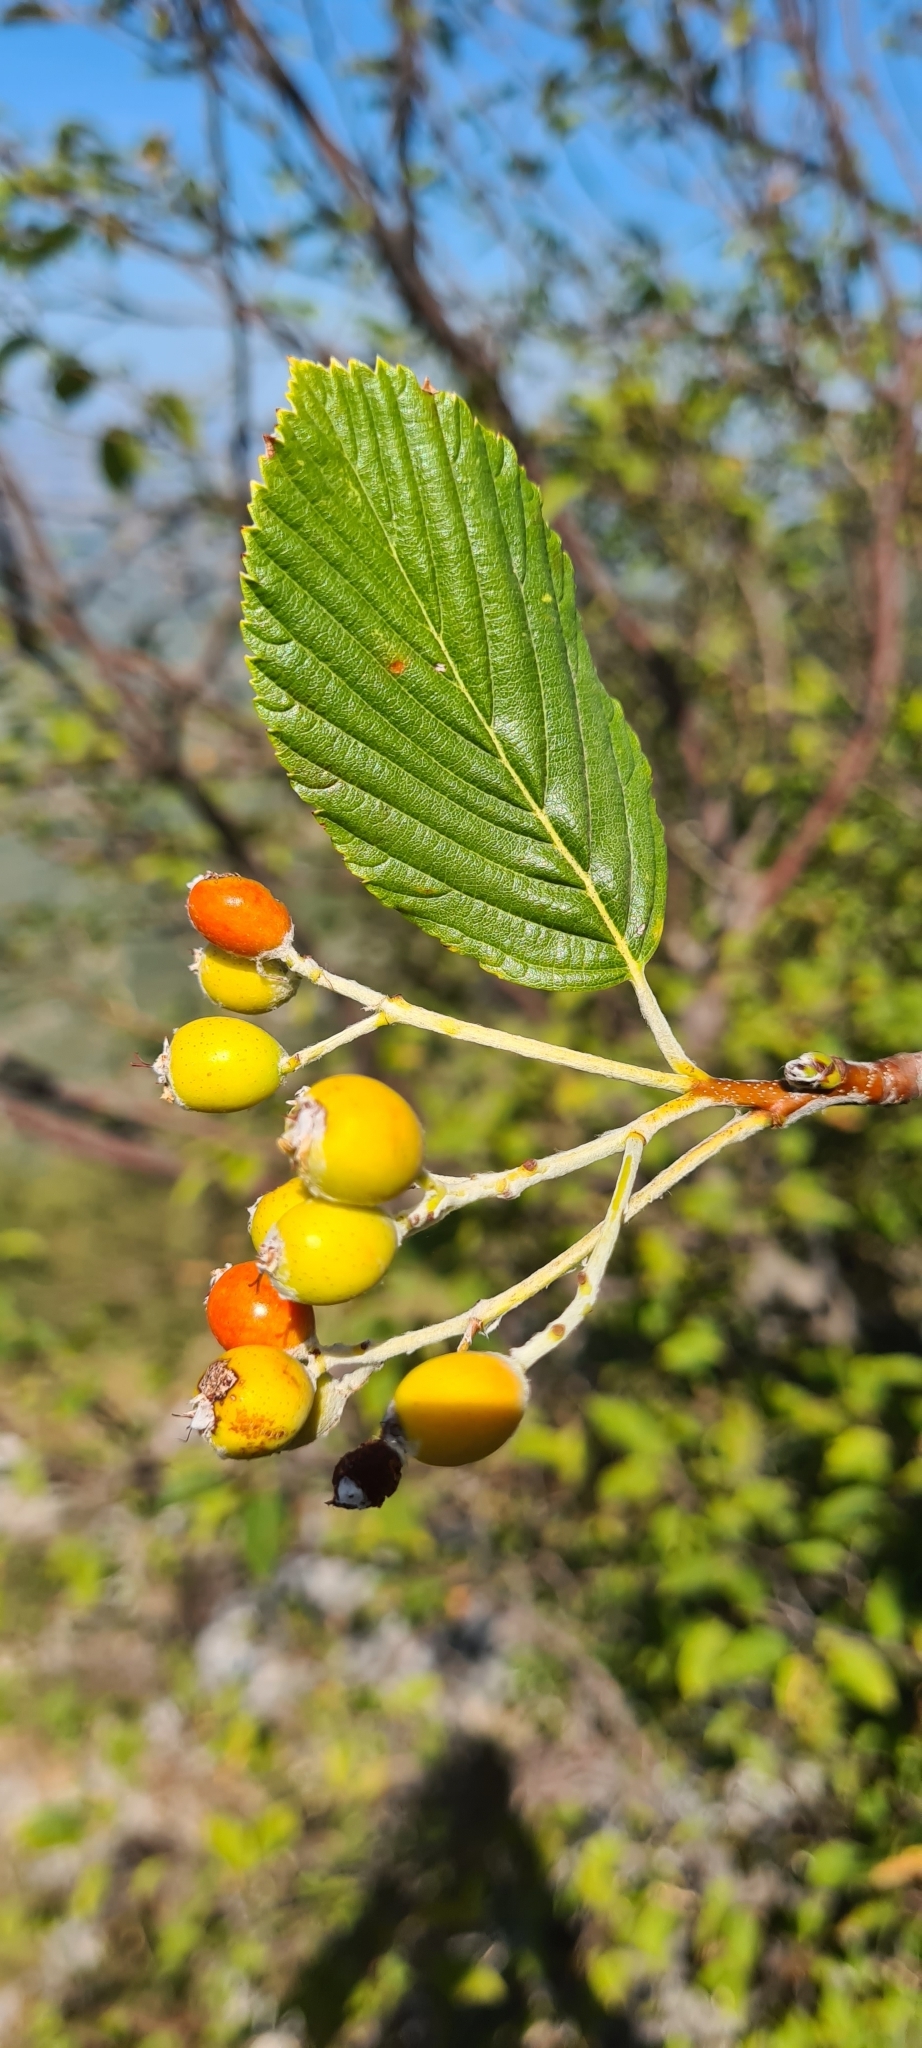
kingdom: Plantae
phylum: Tracheophyta
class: Magnoliopsida
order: Rosales
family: Rosaceae
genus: Aria
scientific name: Aria edulis
